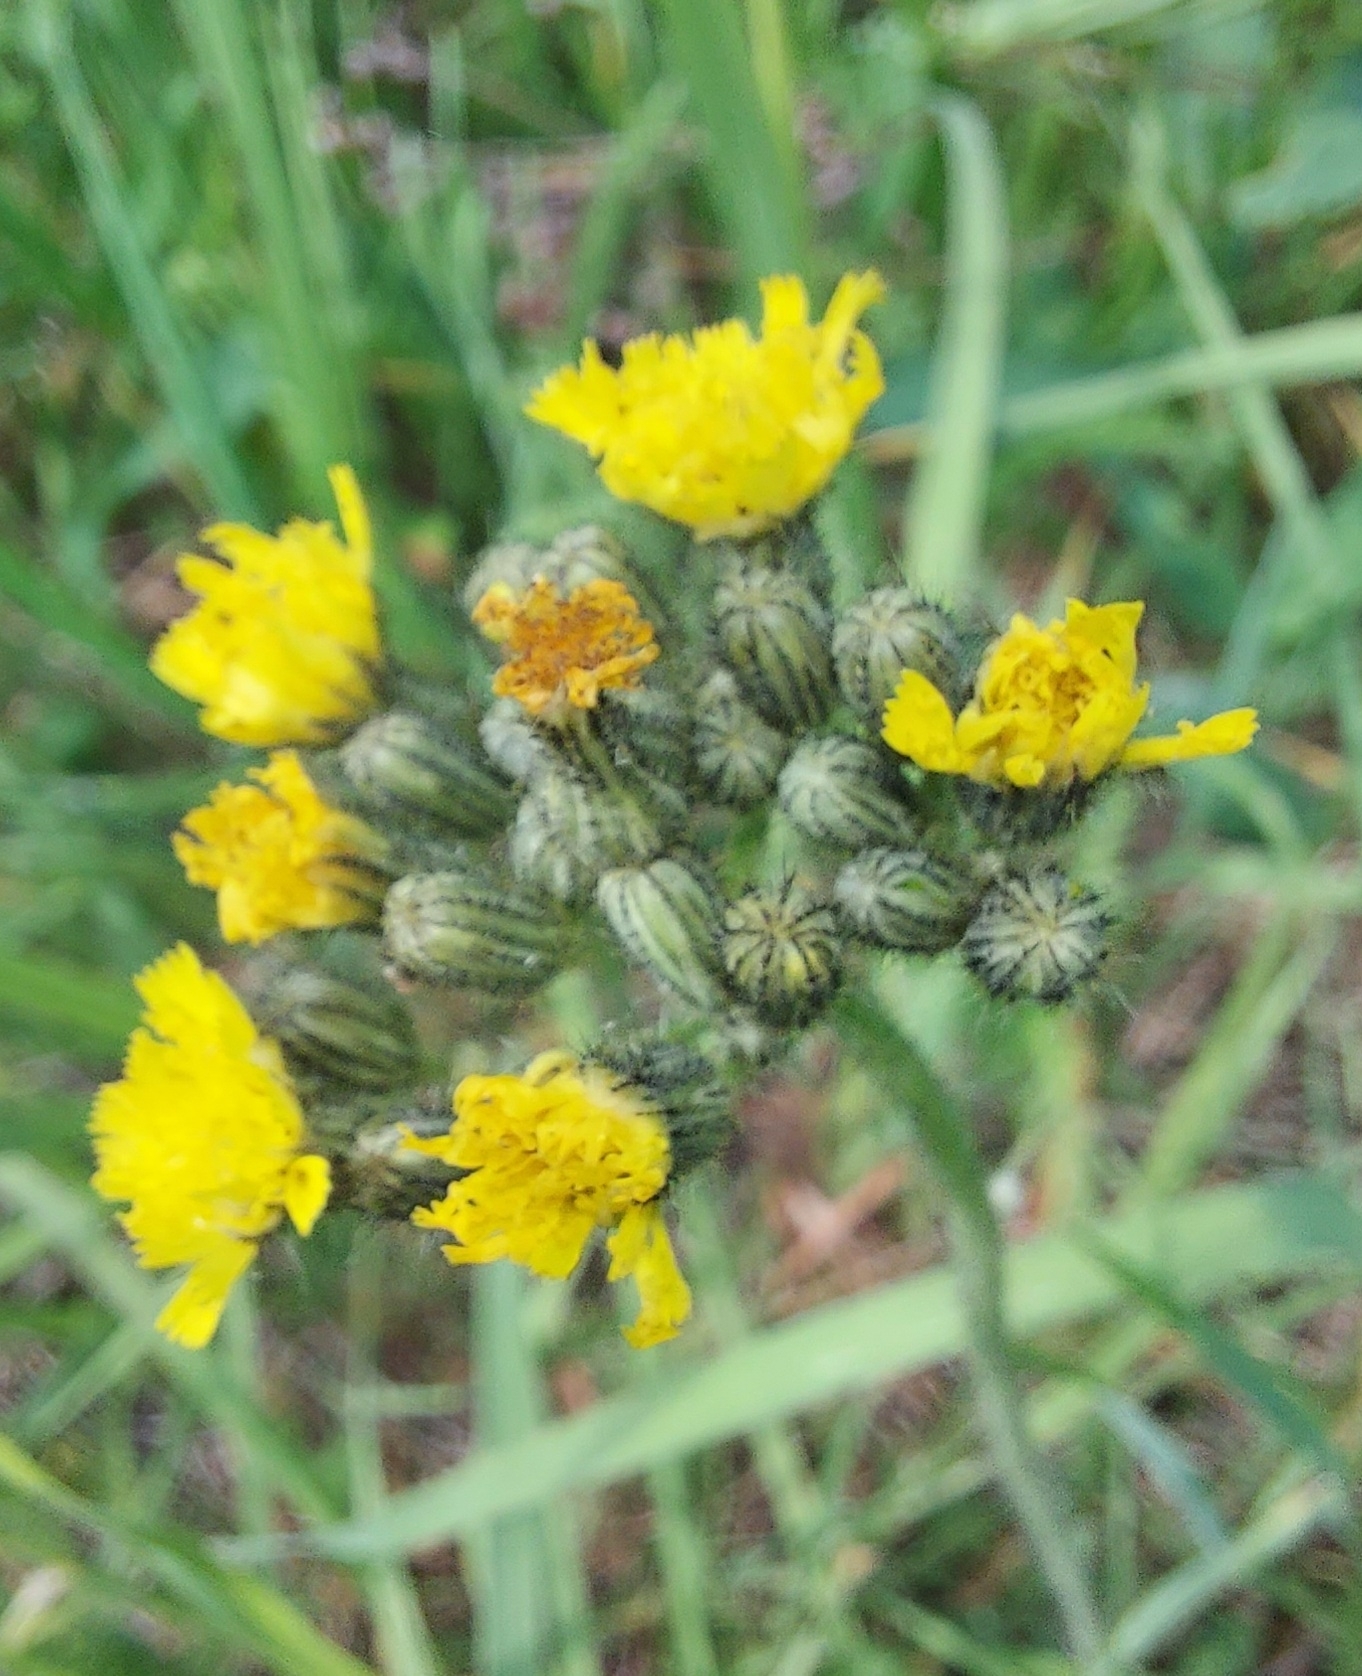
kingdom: Plantae
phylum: Tracheophyta
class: Magnoliopsida
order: Asterales
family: Asteraceae
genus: Pilosella
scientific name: Pilosella
